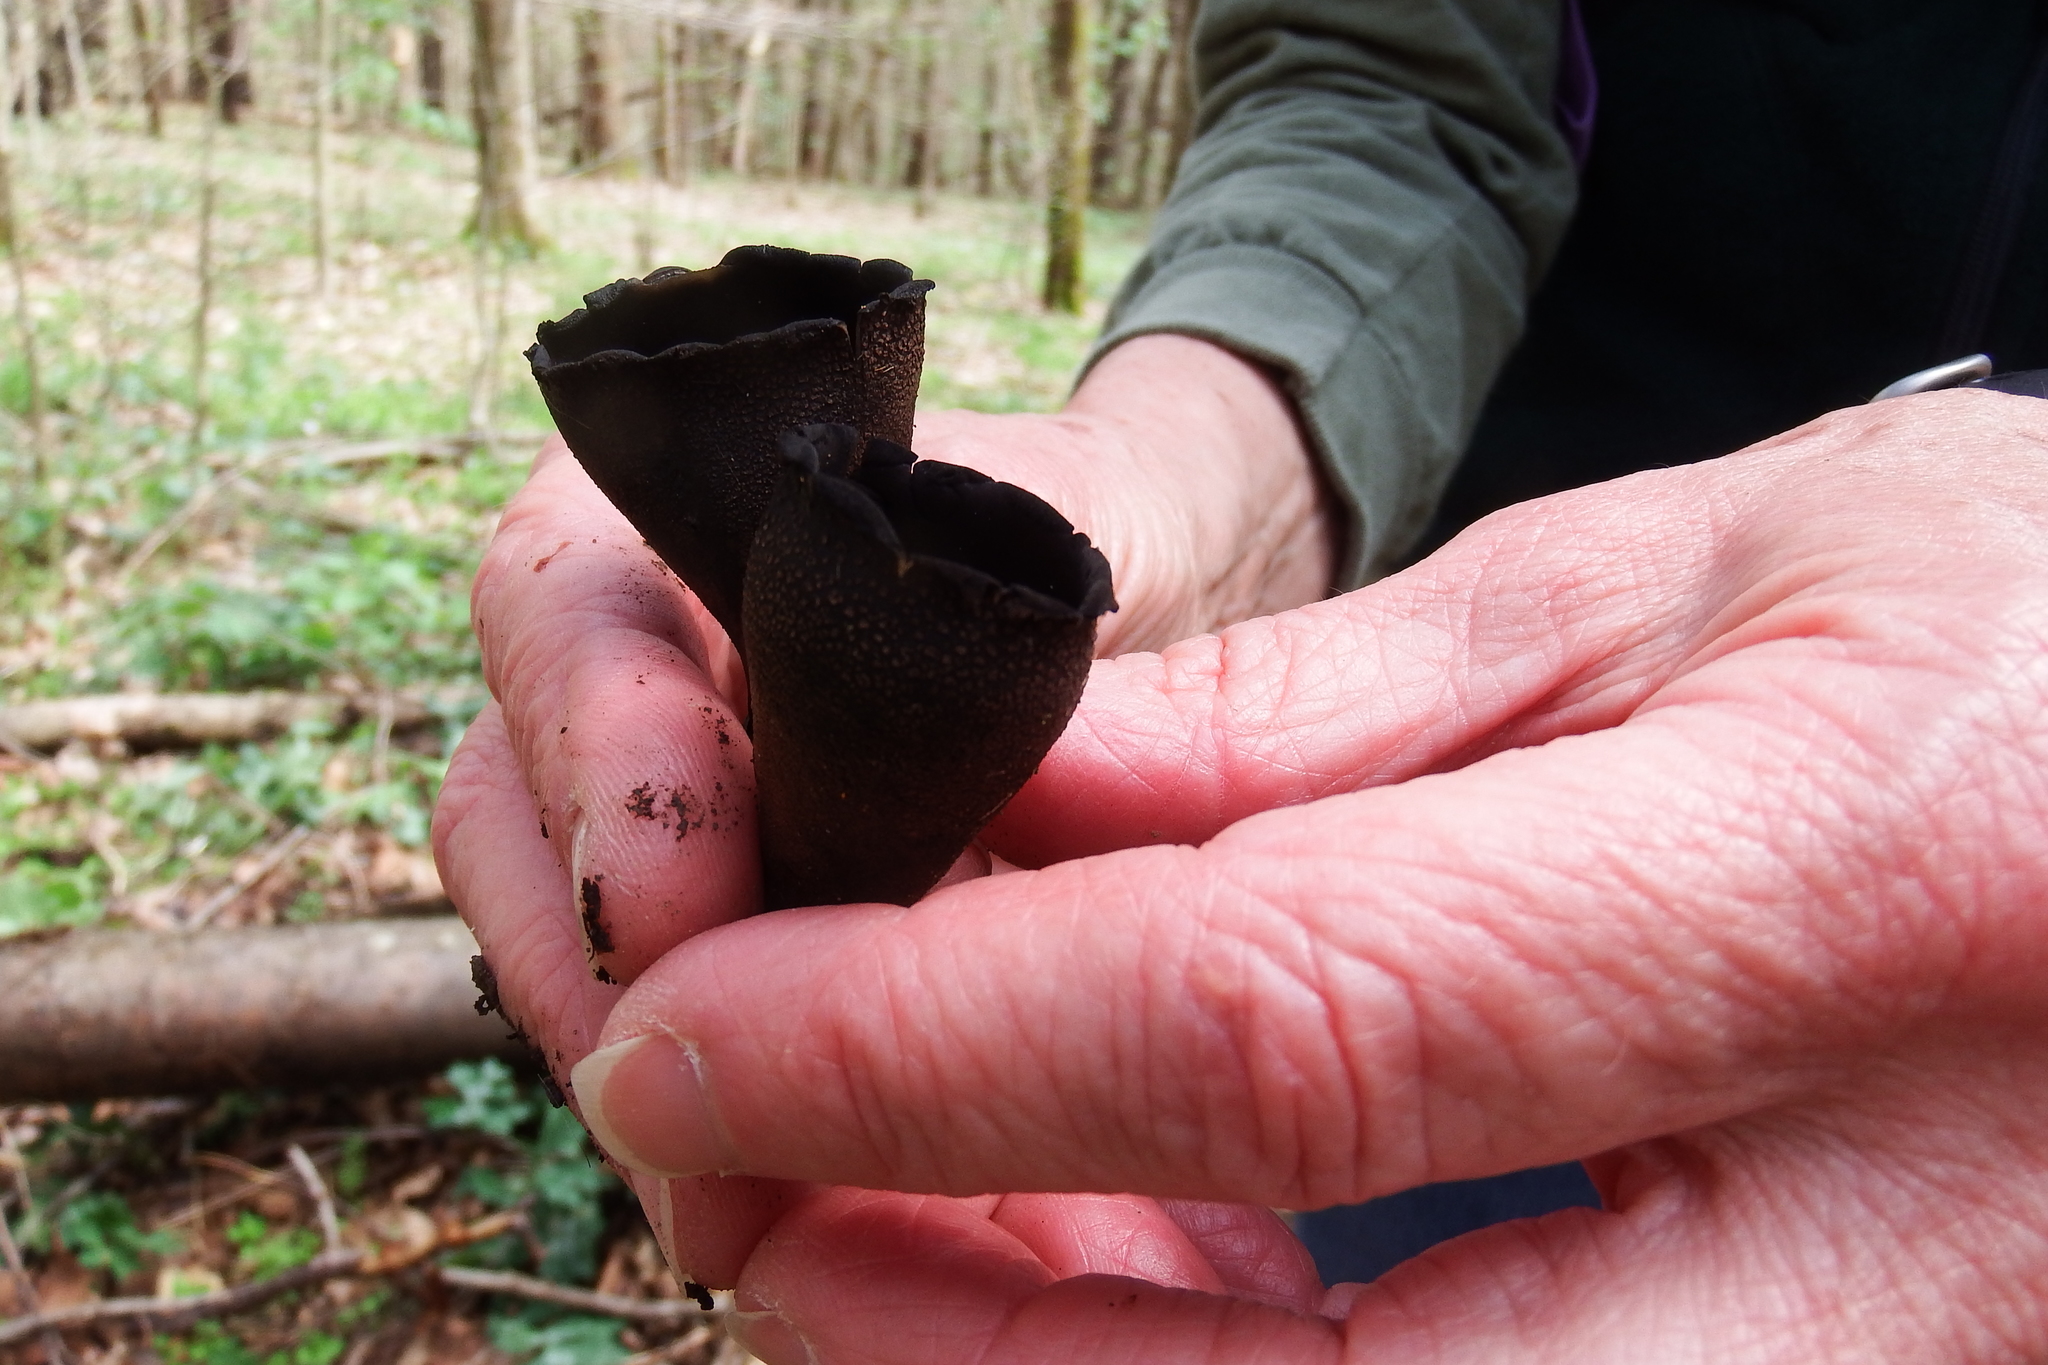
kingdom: Fungi
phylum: Ascomycota
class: Pezizomycetes
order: Pezizales
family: Sarcosomataceae
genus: Urnula
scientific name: Urnula craterium
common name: Devil's urn
